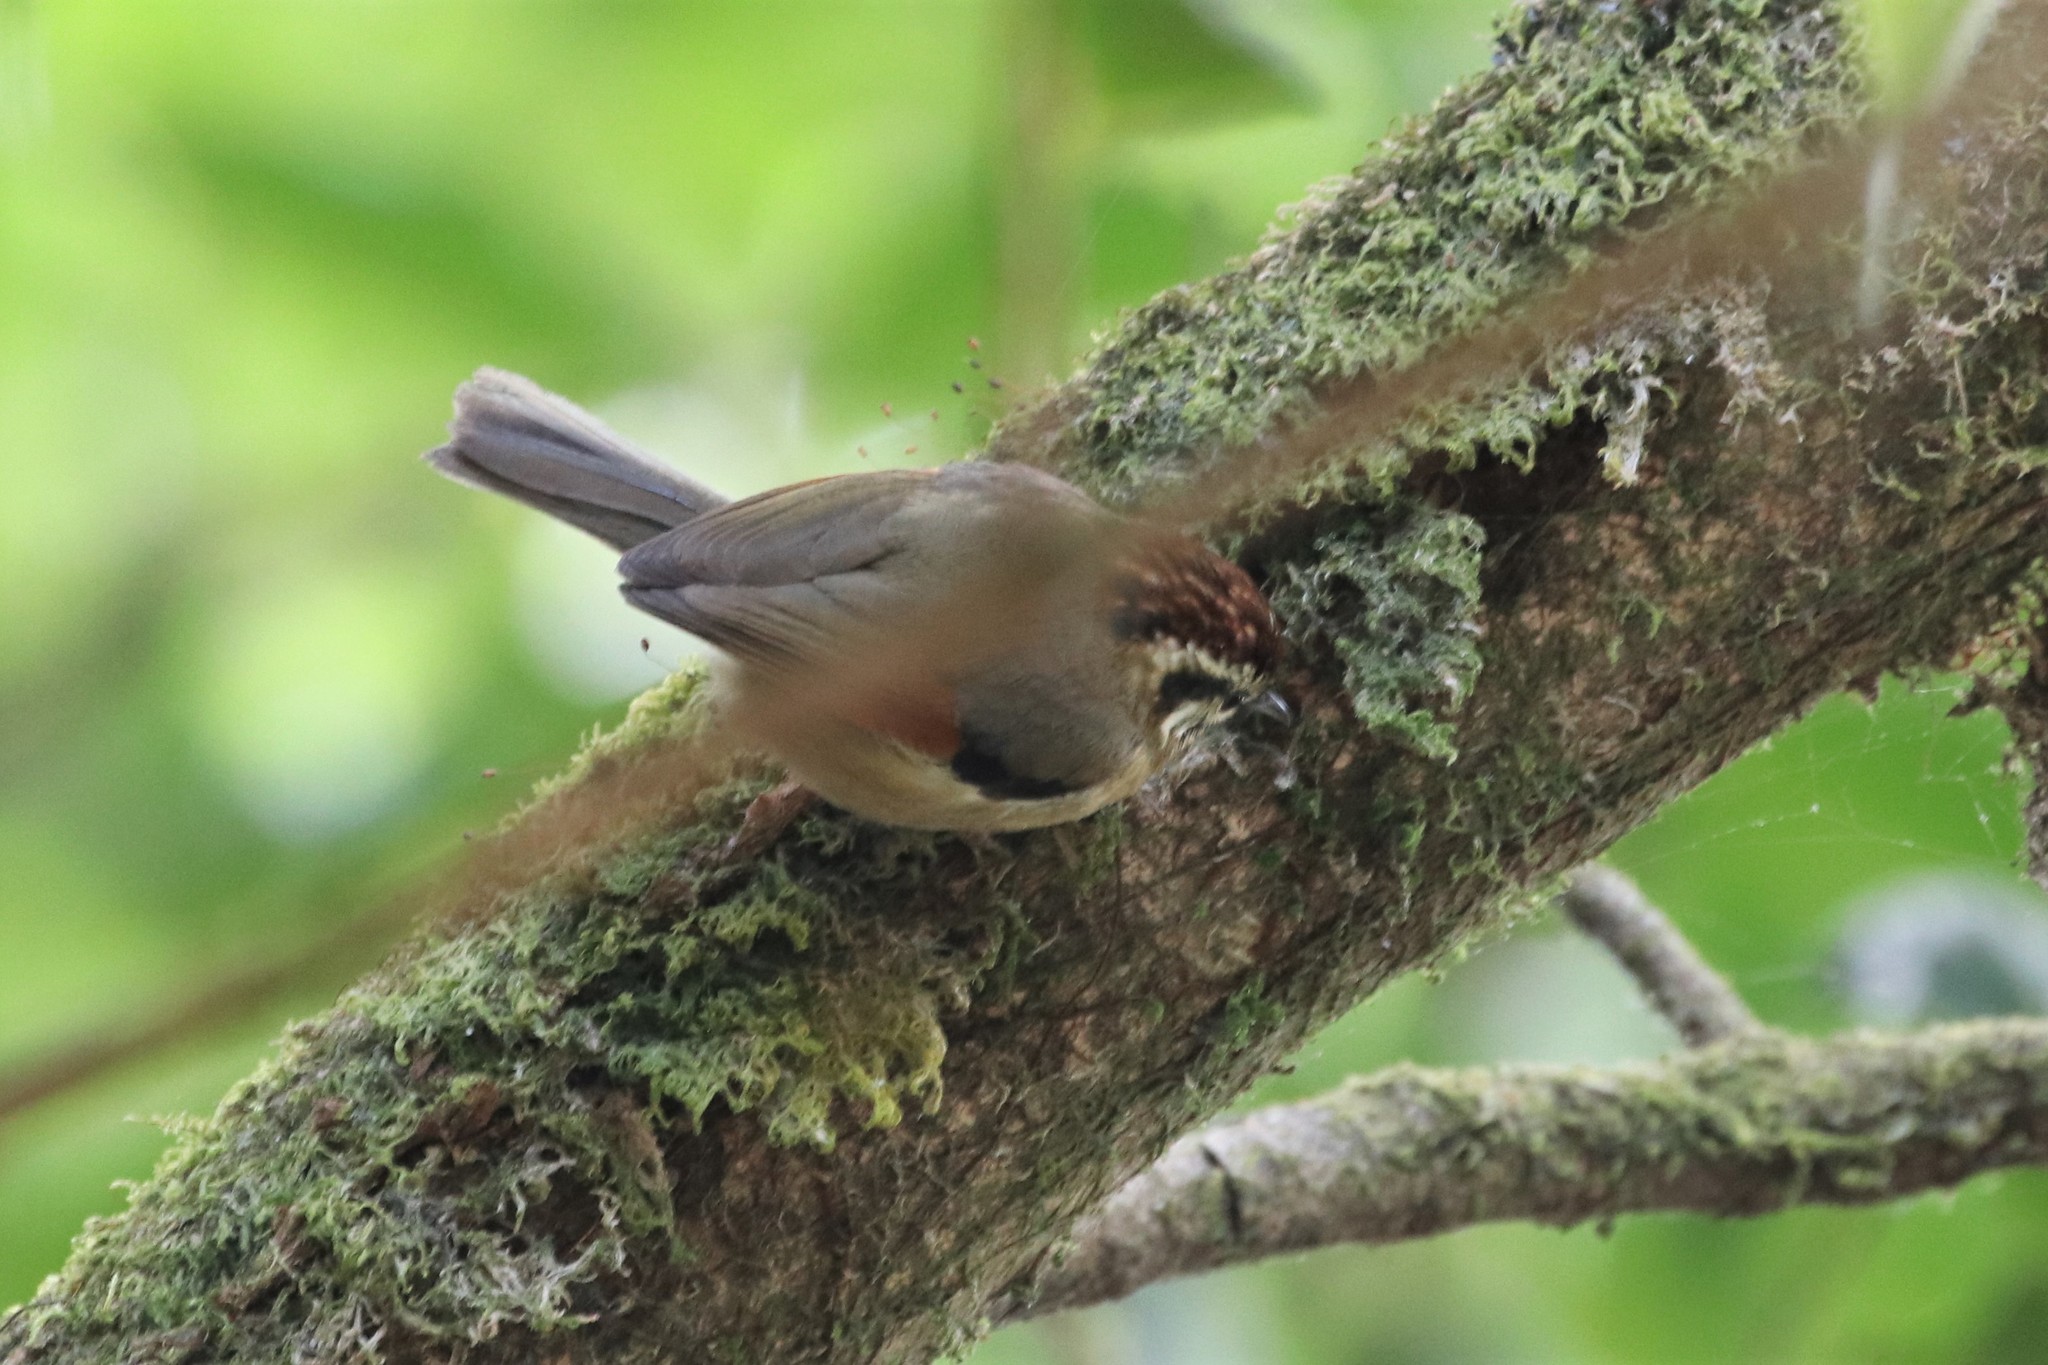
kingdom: Animalia
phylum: Chordata
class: Aves
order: Passeriformes
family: Pellorneidae
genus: Alcippe
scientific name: Alcippe castaneceps
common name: Rufous-winged fulvetta
